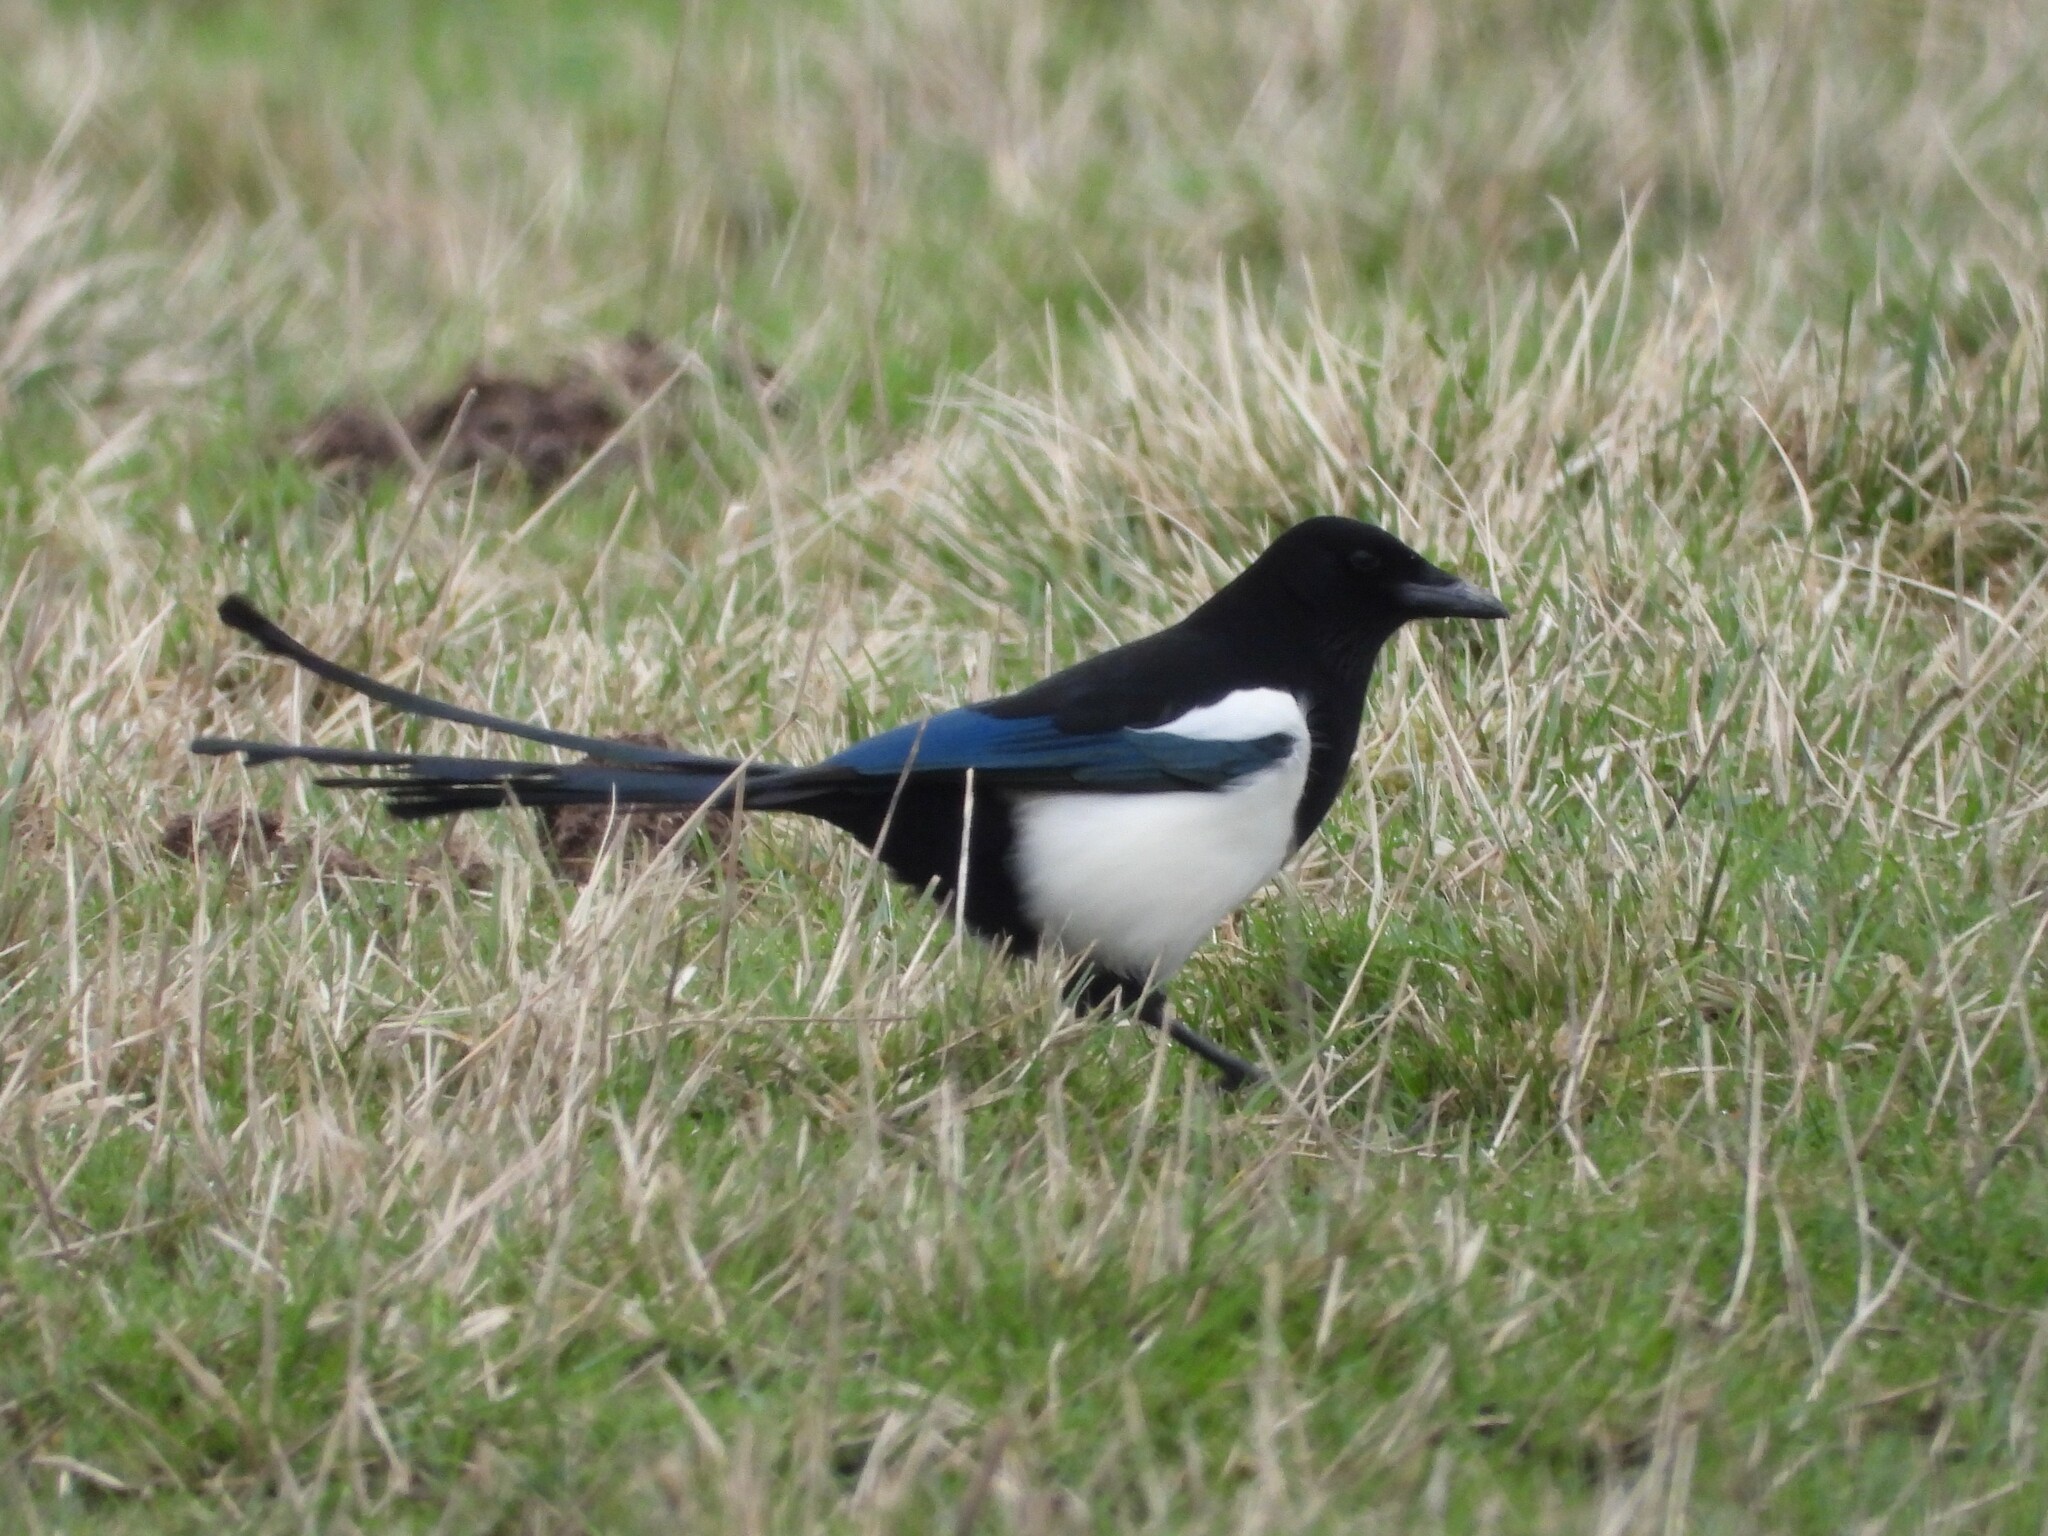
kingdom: Animalia
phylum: Chordata
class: Aves
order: Passeriformes
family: Corvidae
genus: Pica
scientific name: Pica pica
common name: Eurasian magpie
